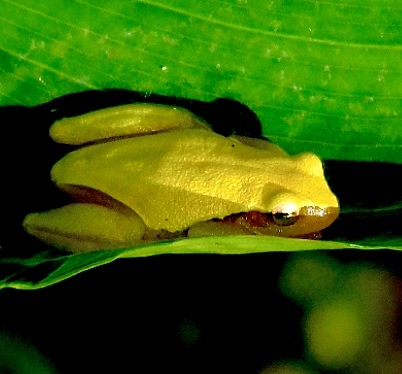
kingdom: Animalia
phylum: Chordata
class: Amphibia
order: Anura
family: Hylidae
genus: Tlalocohyla
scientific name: Tlalocohyla smithii
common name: Dwarf mexican treefrog
